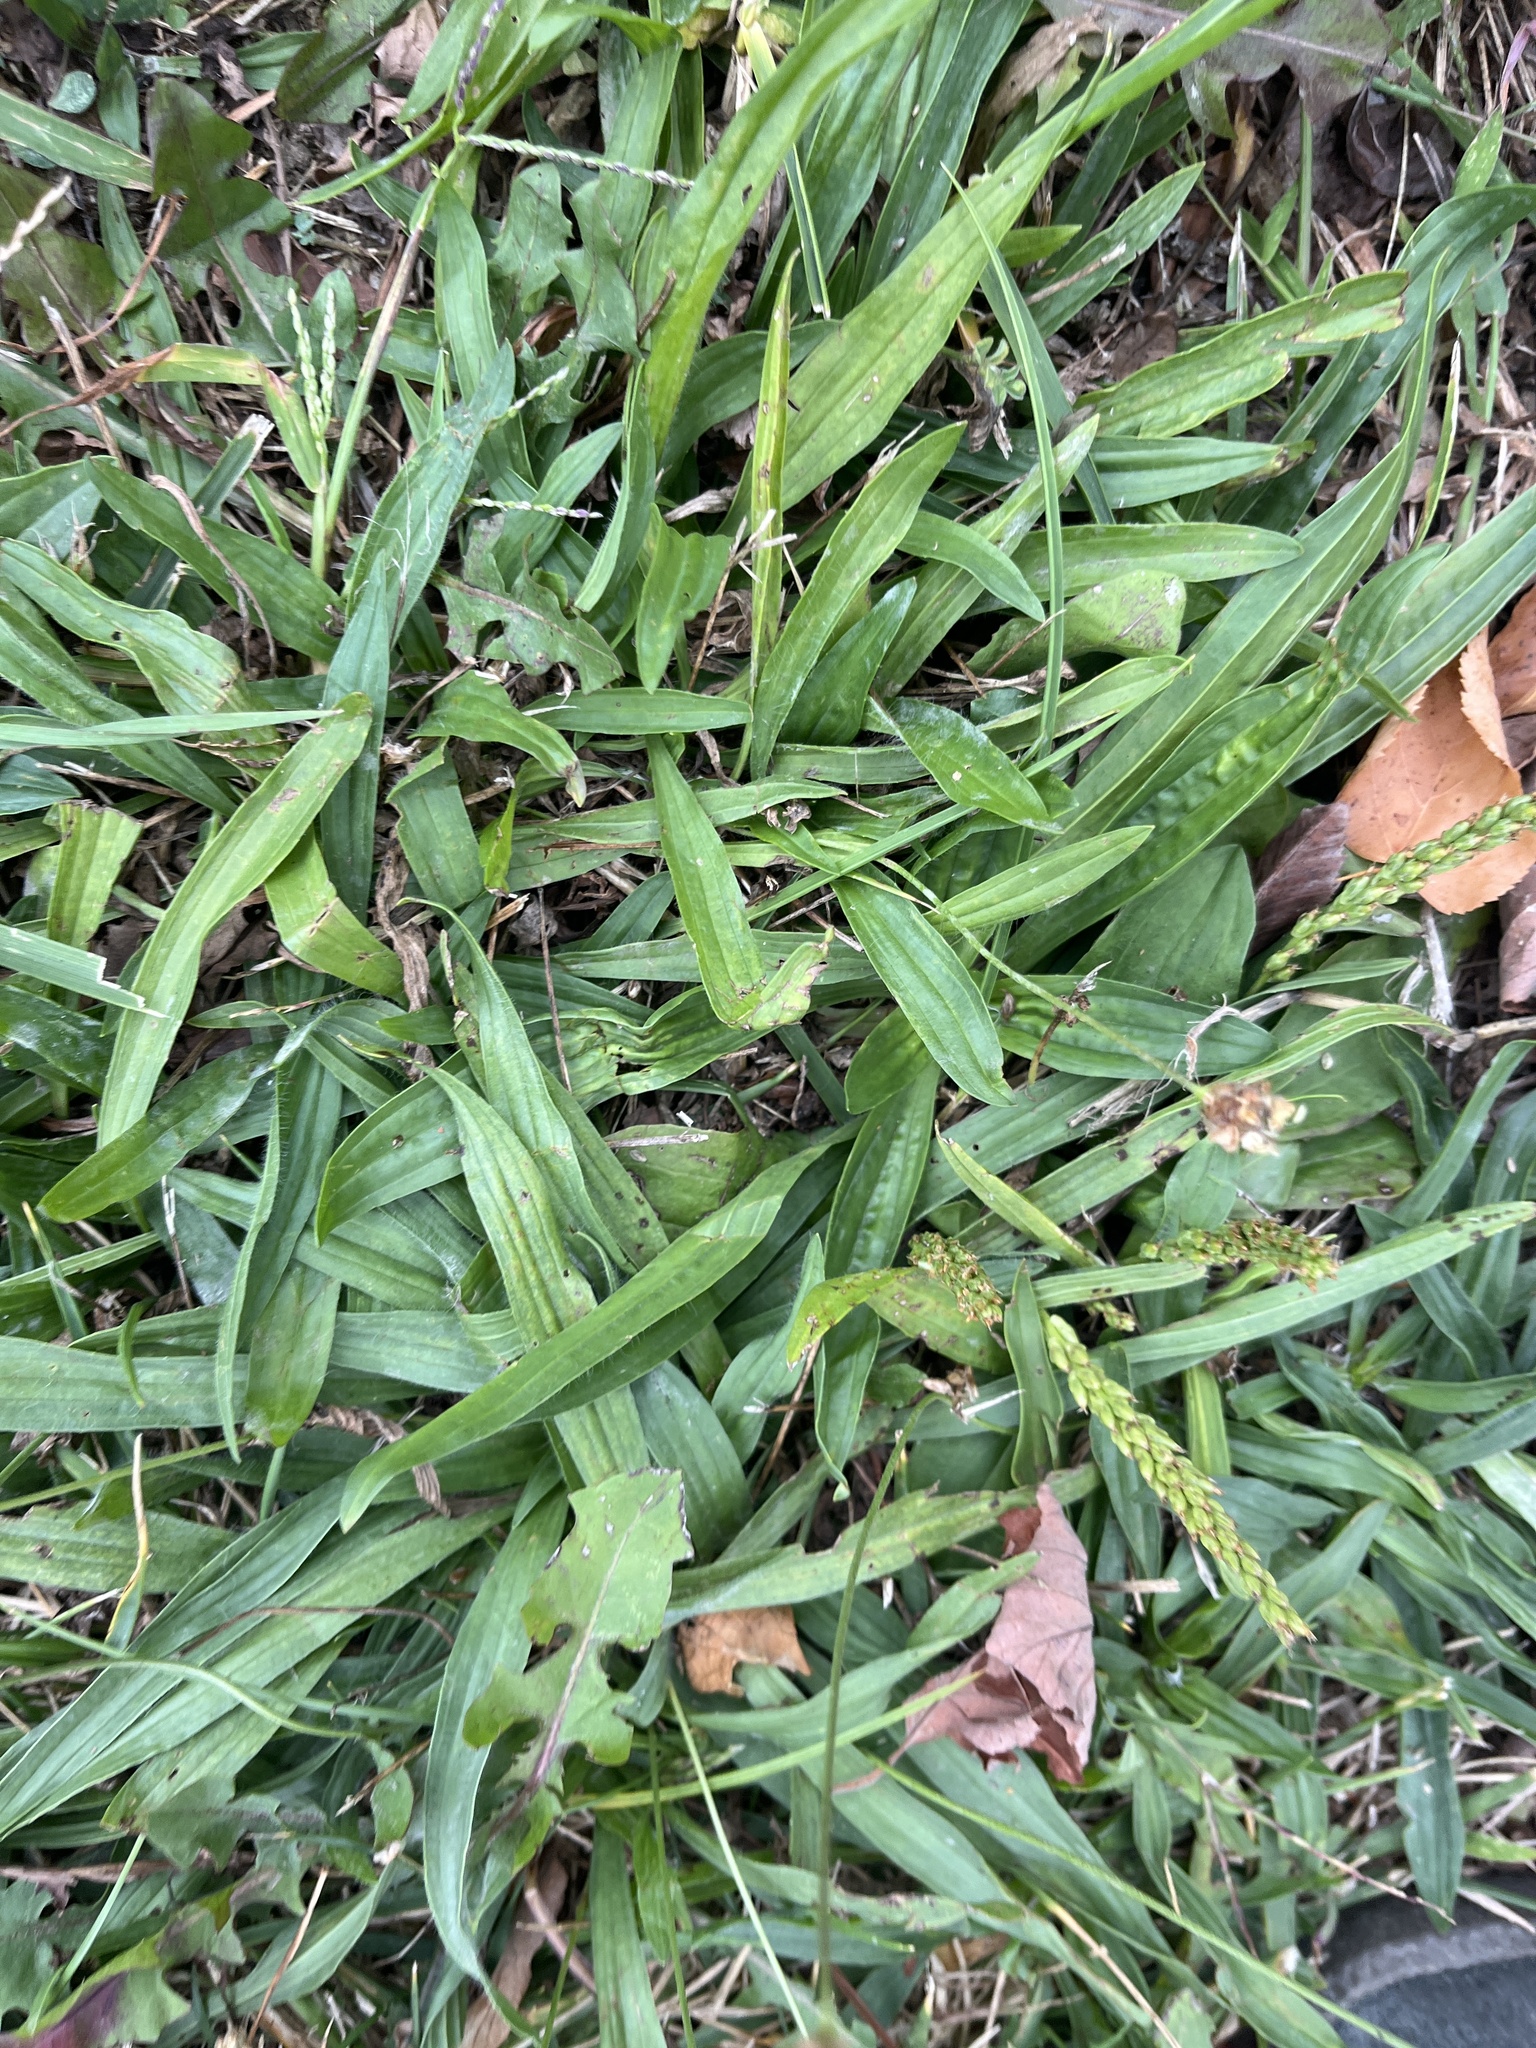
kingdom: Plantae
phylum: Tracheophyta
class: Magnoliopsida
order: Lamiales
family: Plantaginaceae
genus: Plantago
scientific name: Plantago lanceolata
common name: Ribwort plantain
